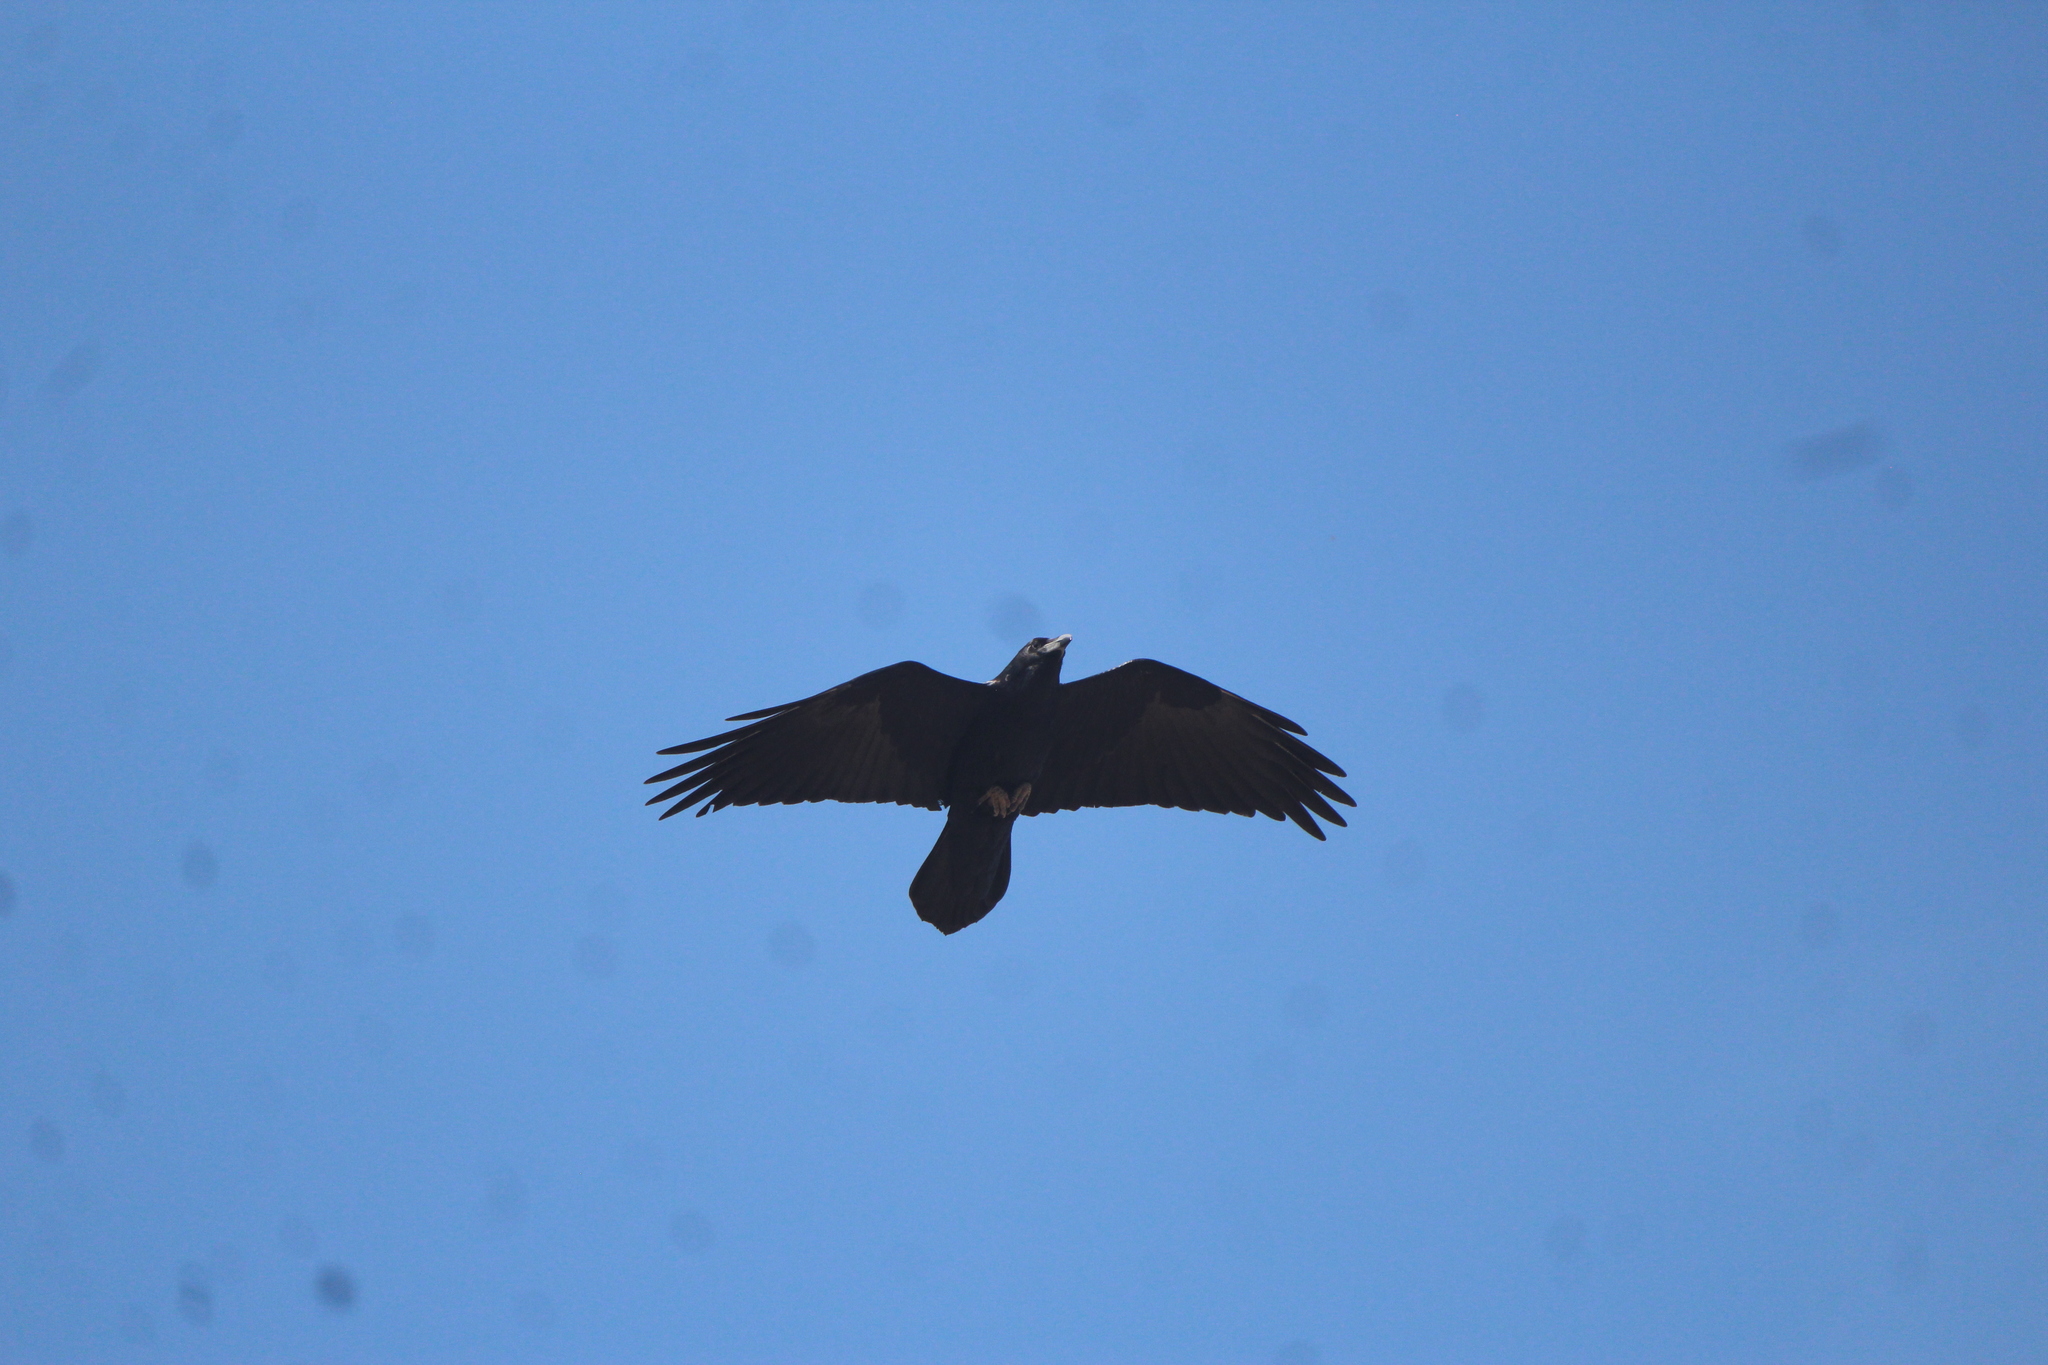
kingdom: Animalia
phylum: Chordata
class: Aves
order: Passeriformes
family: Corvidae
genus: Corvus
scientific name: Corvus corax
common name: Common raven
